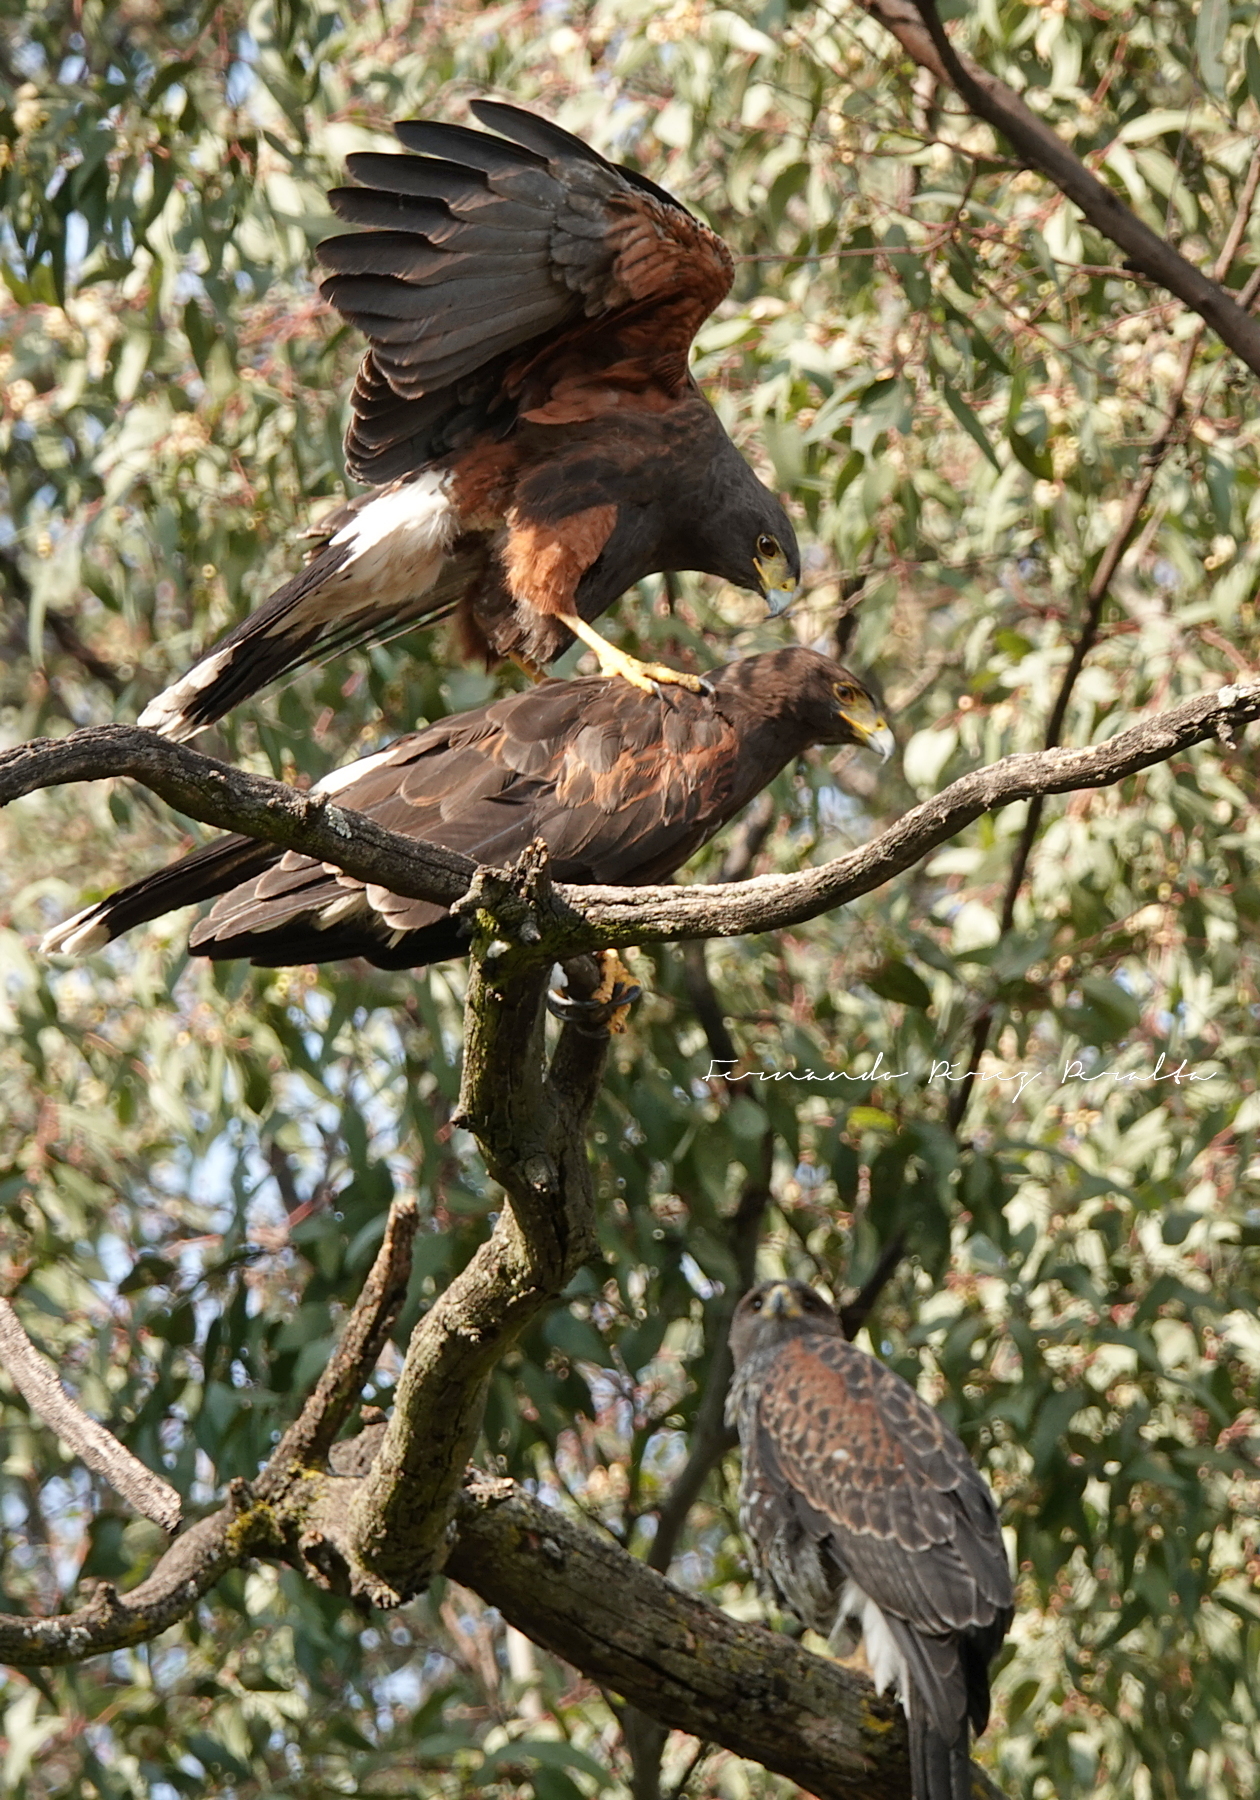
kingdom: Animalia
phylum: Chordata
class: Aves
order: Accipitriformes
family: Accipitridae
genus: Parabuteo
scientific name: Parabuteo unicinctus
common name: Harris's hawk
